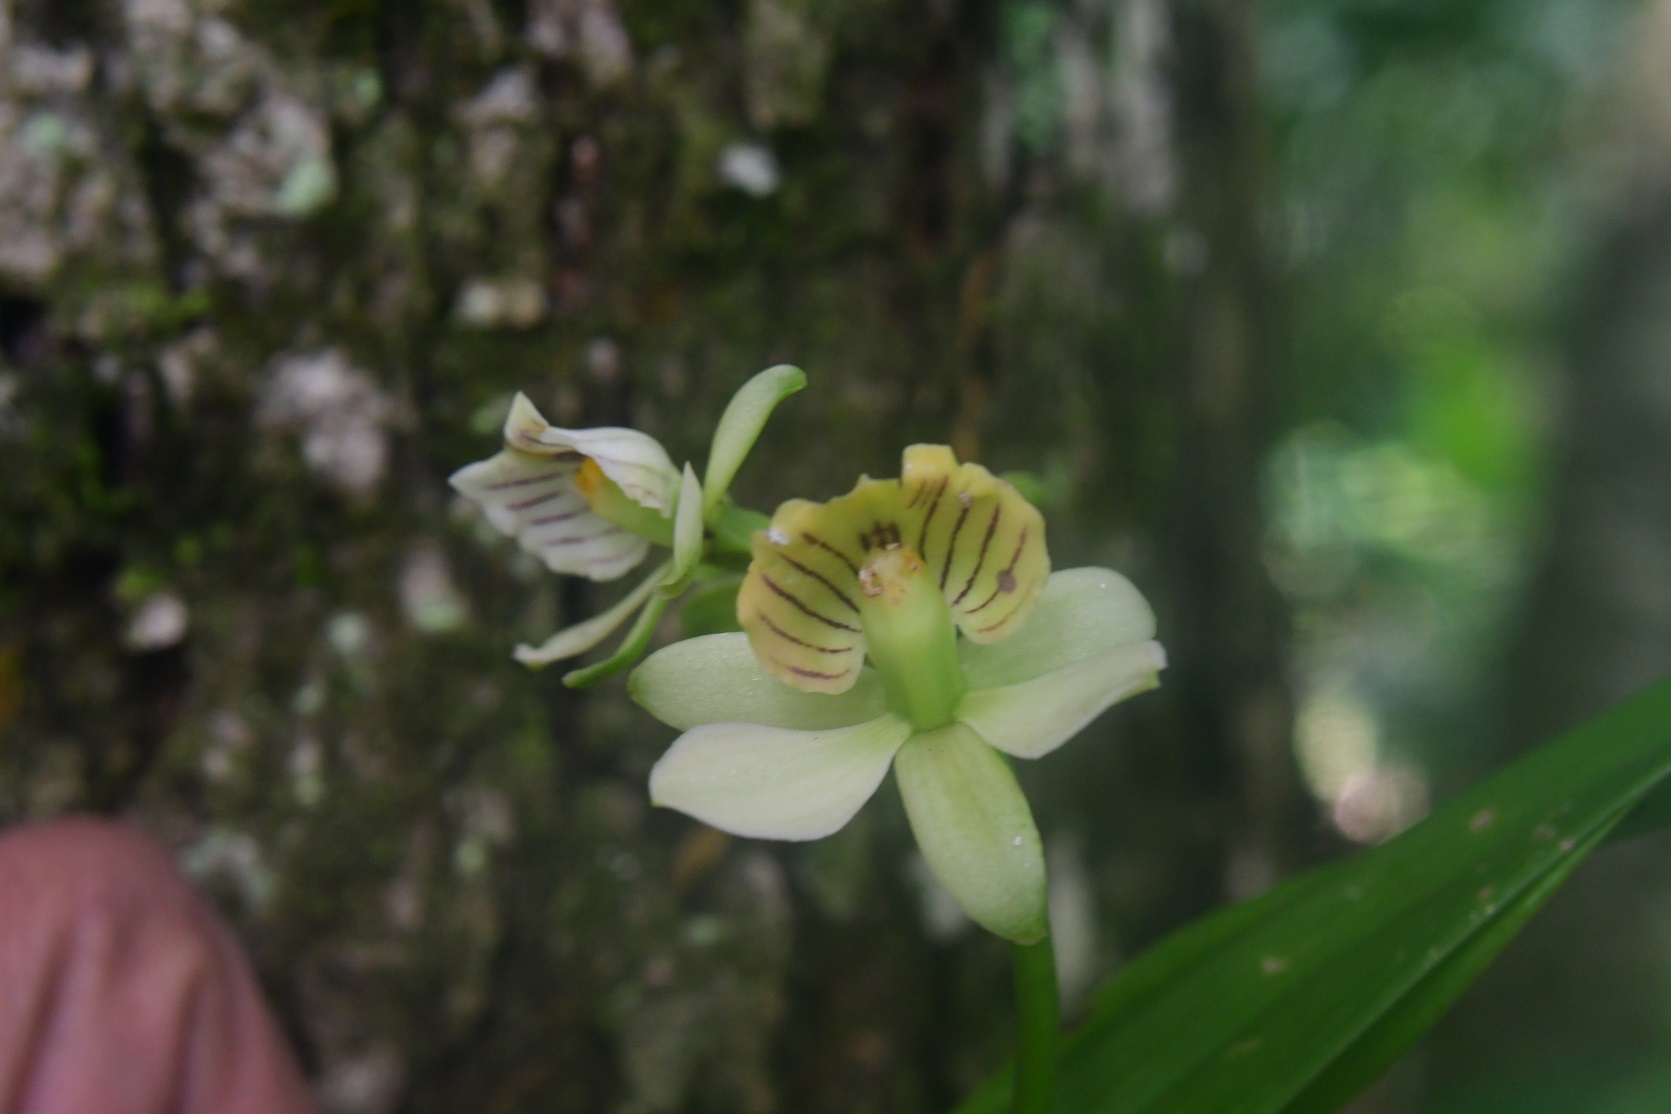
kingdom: Plantae
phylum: Tracheophyta
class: Liliopsida
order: Asparagales
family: Orchidaceae
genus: Prosthechea
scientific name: Prosthechea radiata
